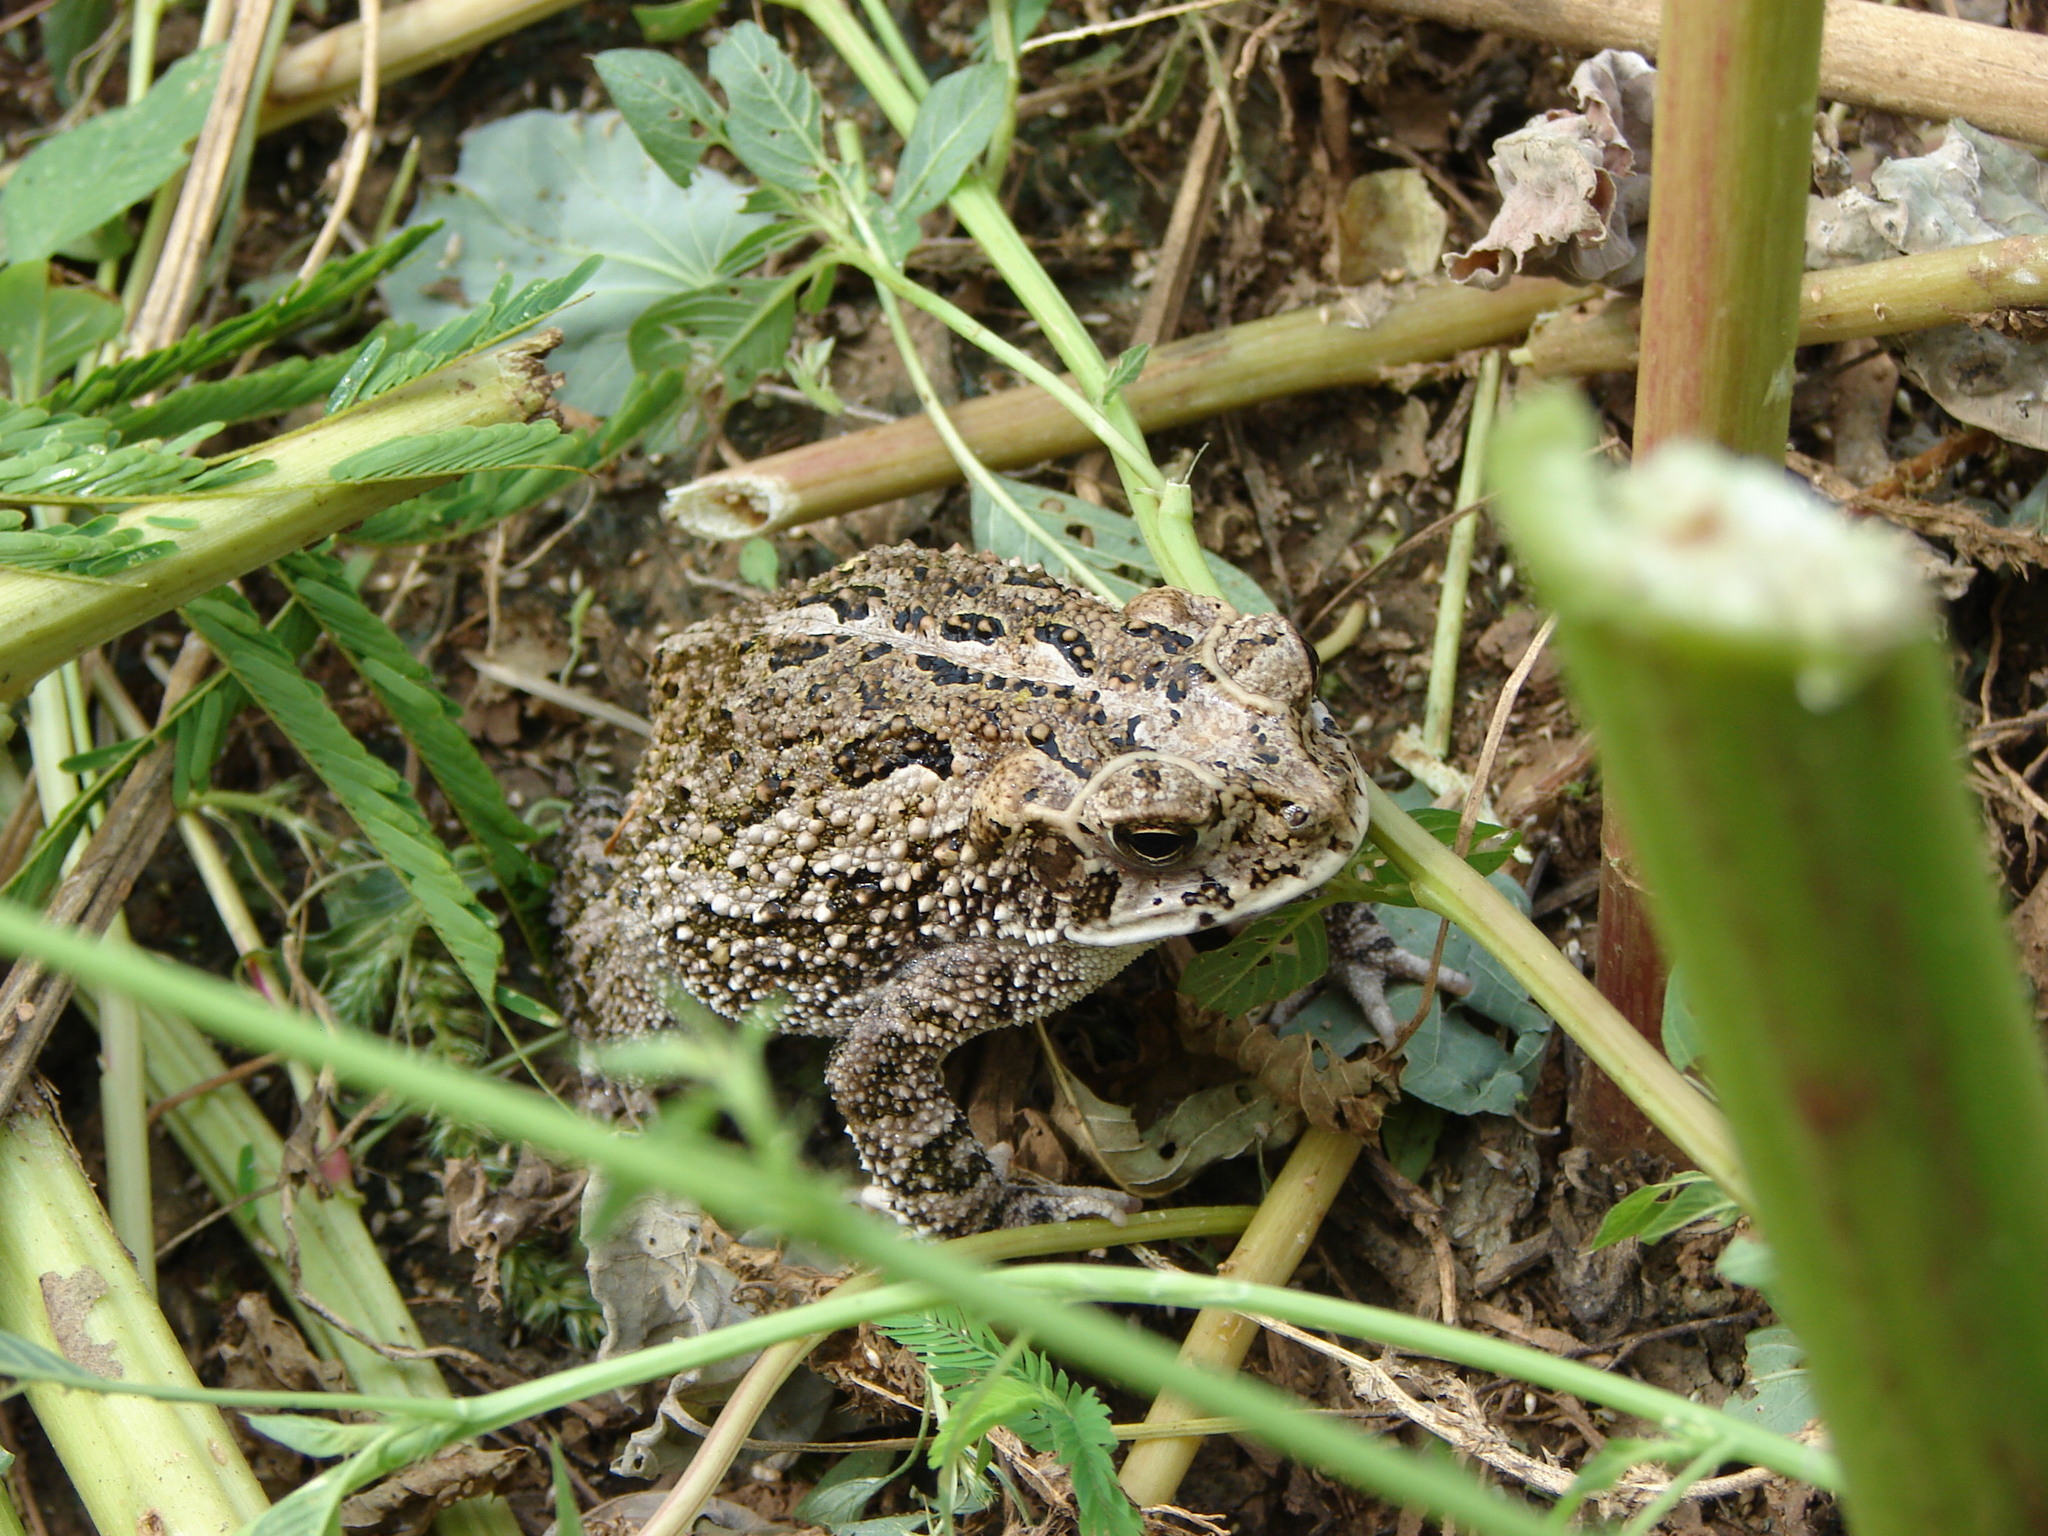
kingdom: Animalia
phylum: Chordata
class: Amphibia
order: Anura
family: Bufonidae
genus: Incilius
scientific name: Incilius mazatlanensis
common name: Sinaloa toad
